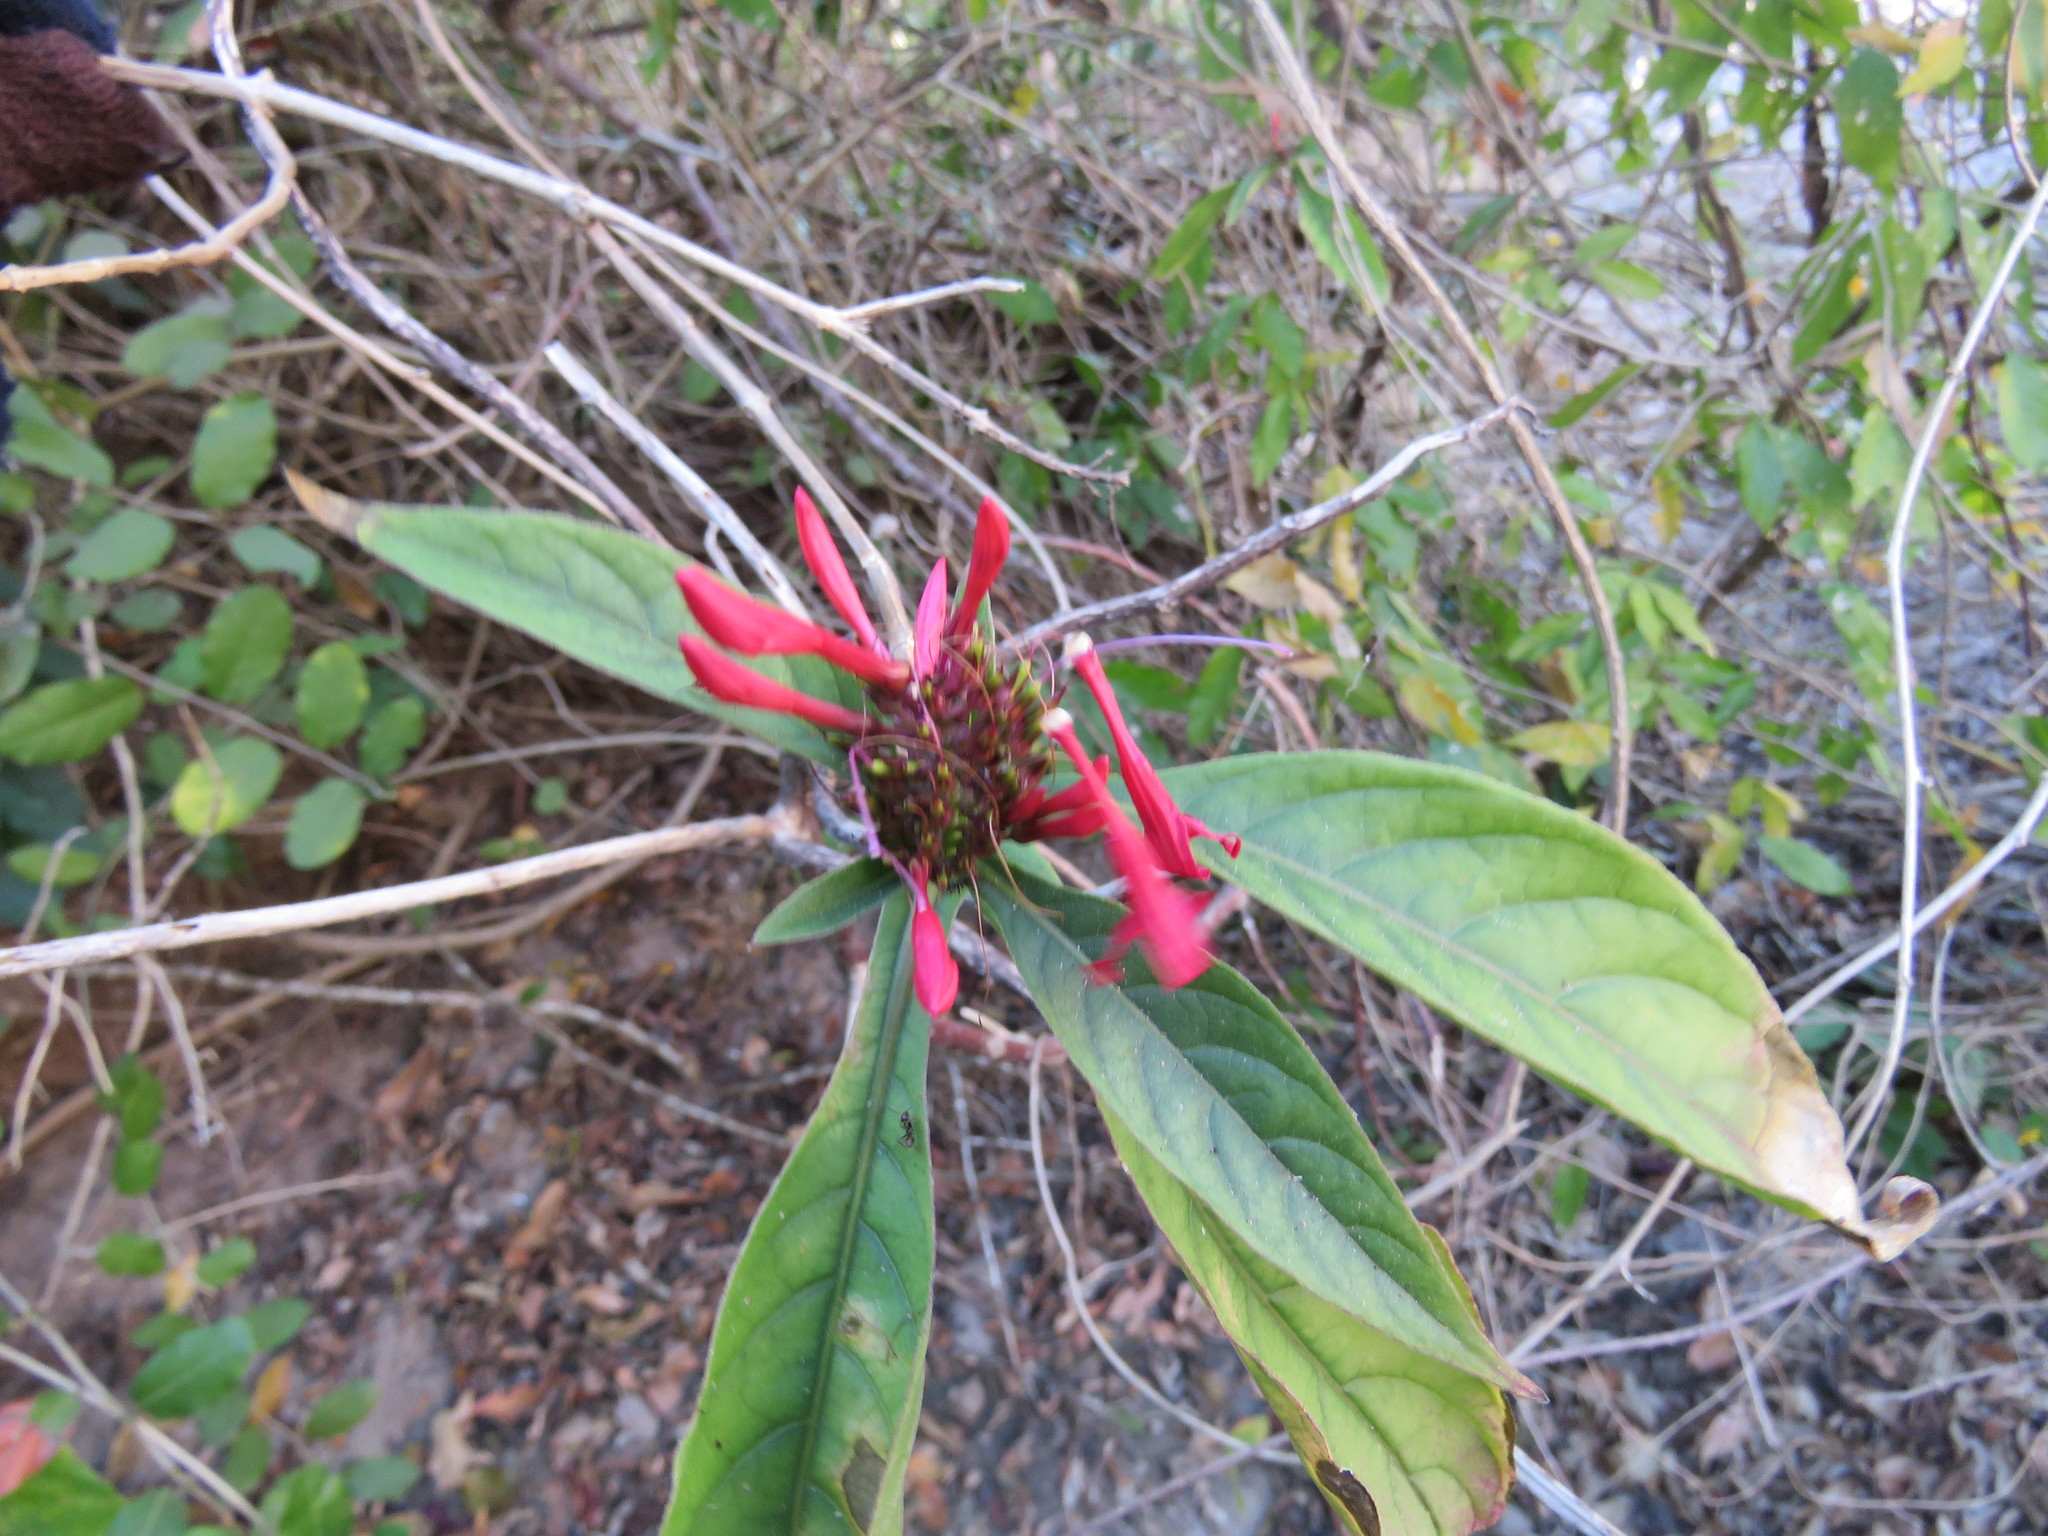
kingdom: Plantae
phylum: Tracheophyta
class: Magnoliopsida
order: Lamiales
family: Acanthaceae
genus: Aphelandra
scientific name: Aphelandra lineariloba
